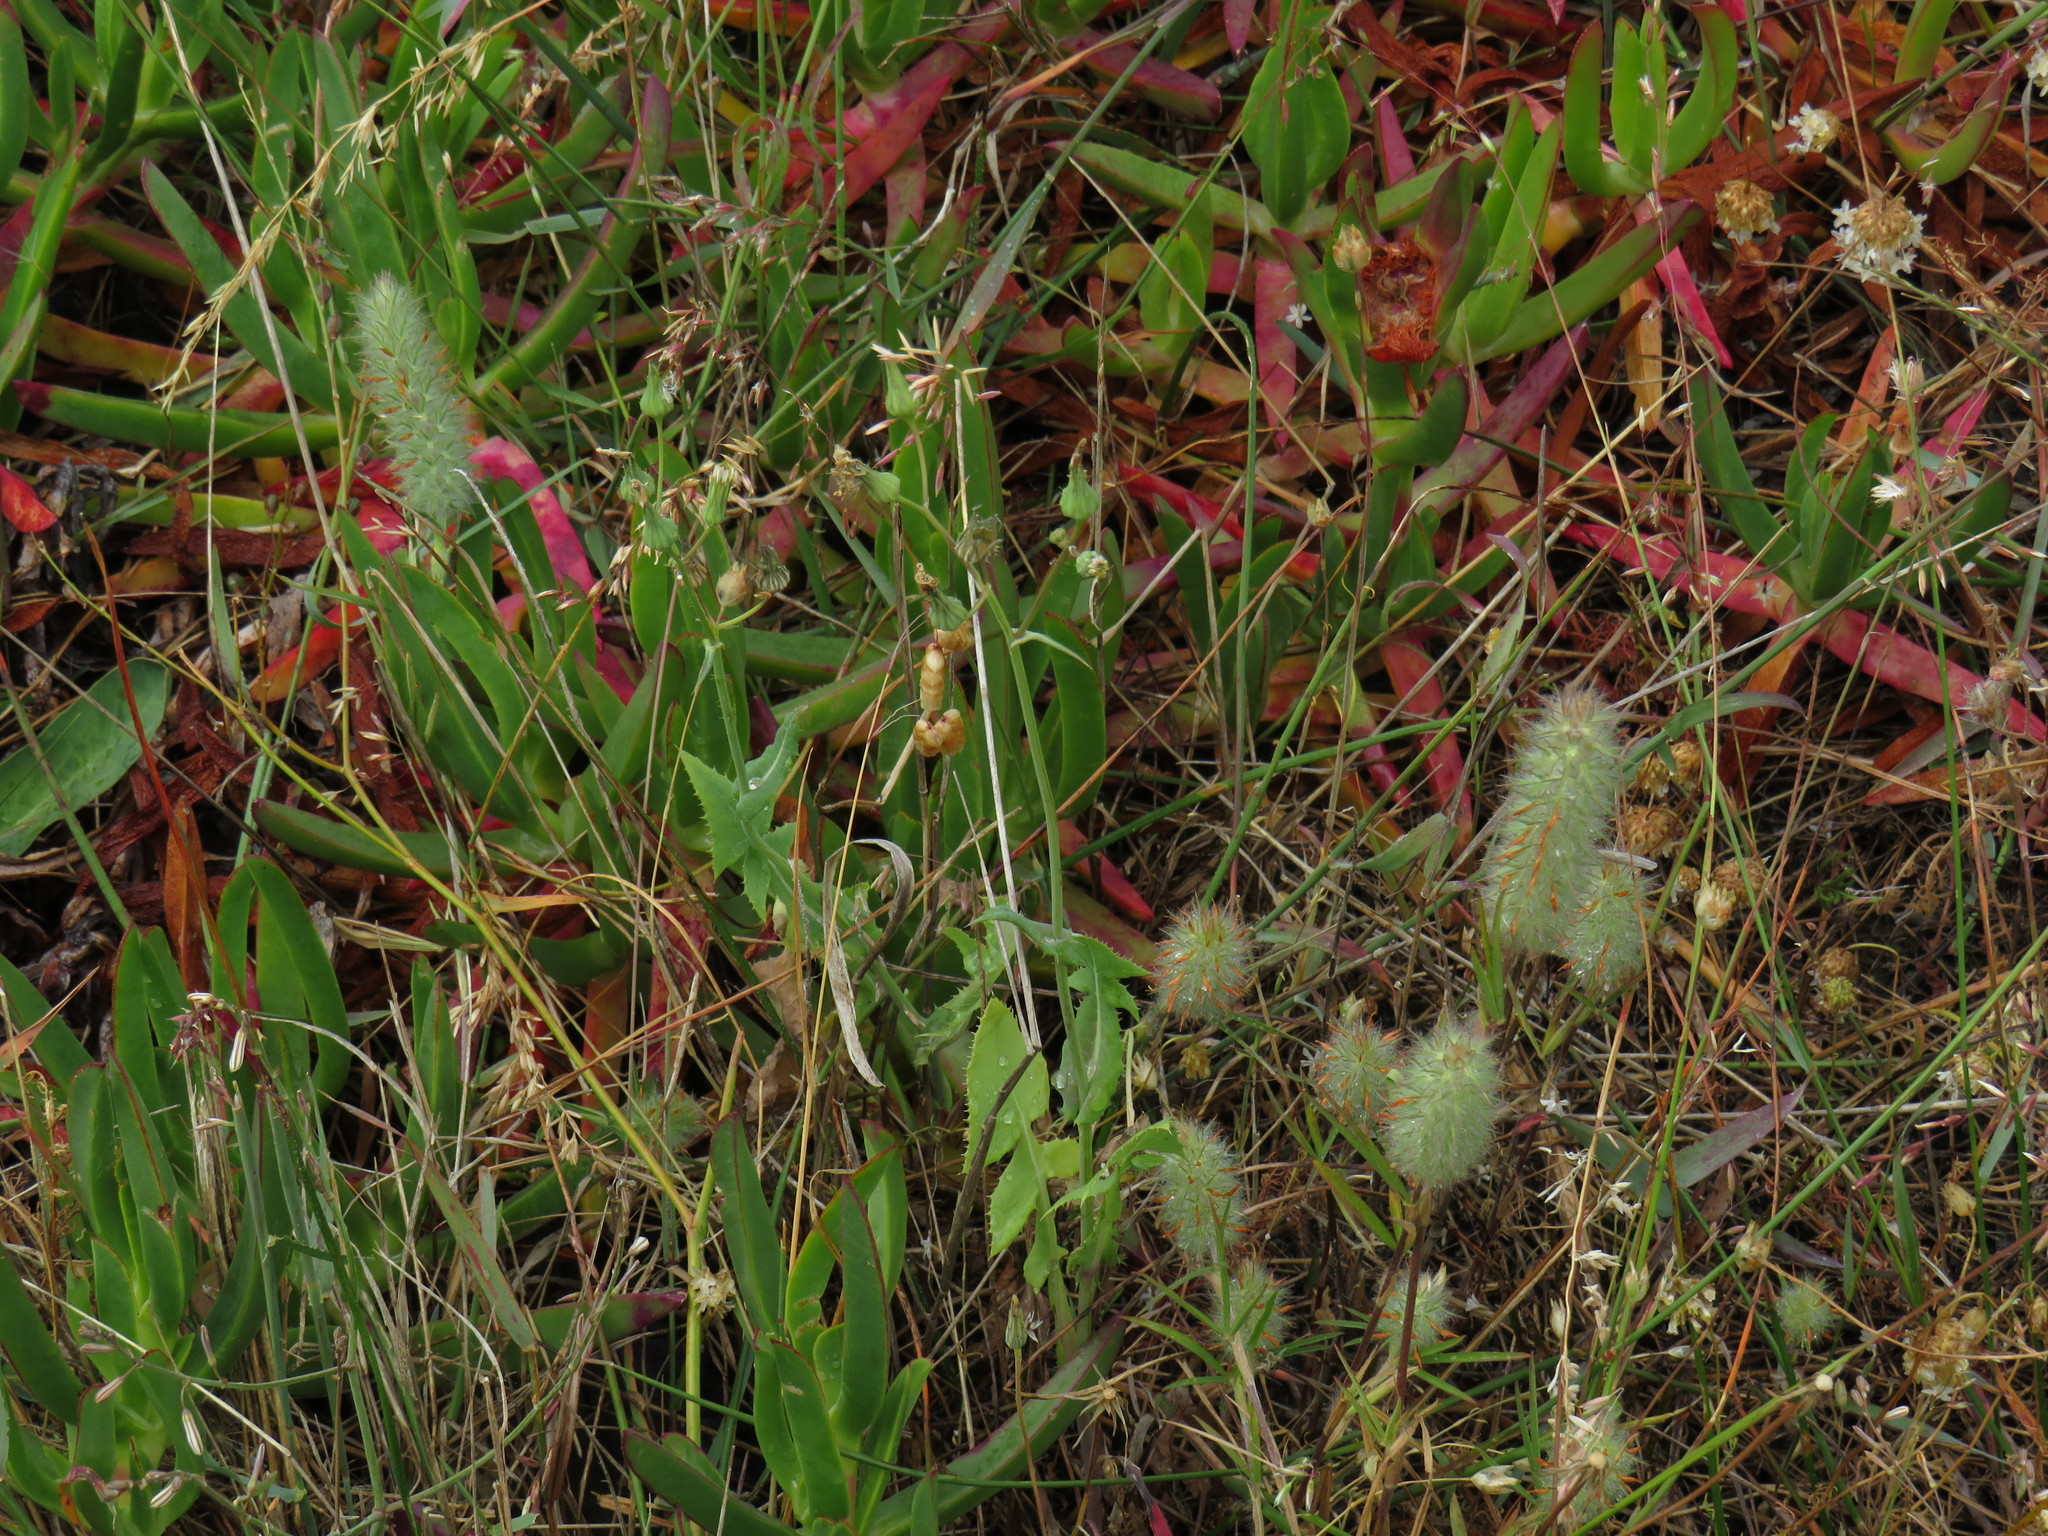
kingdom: Plantae
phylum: Tracheophyta
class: Magnoliopsida
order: Asterales
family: Asteraceae
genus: Sonchus
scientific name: Sonchus oleraceus
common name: Common sowthistle
